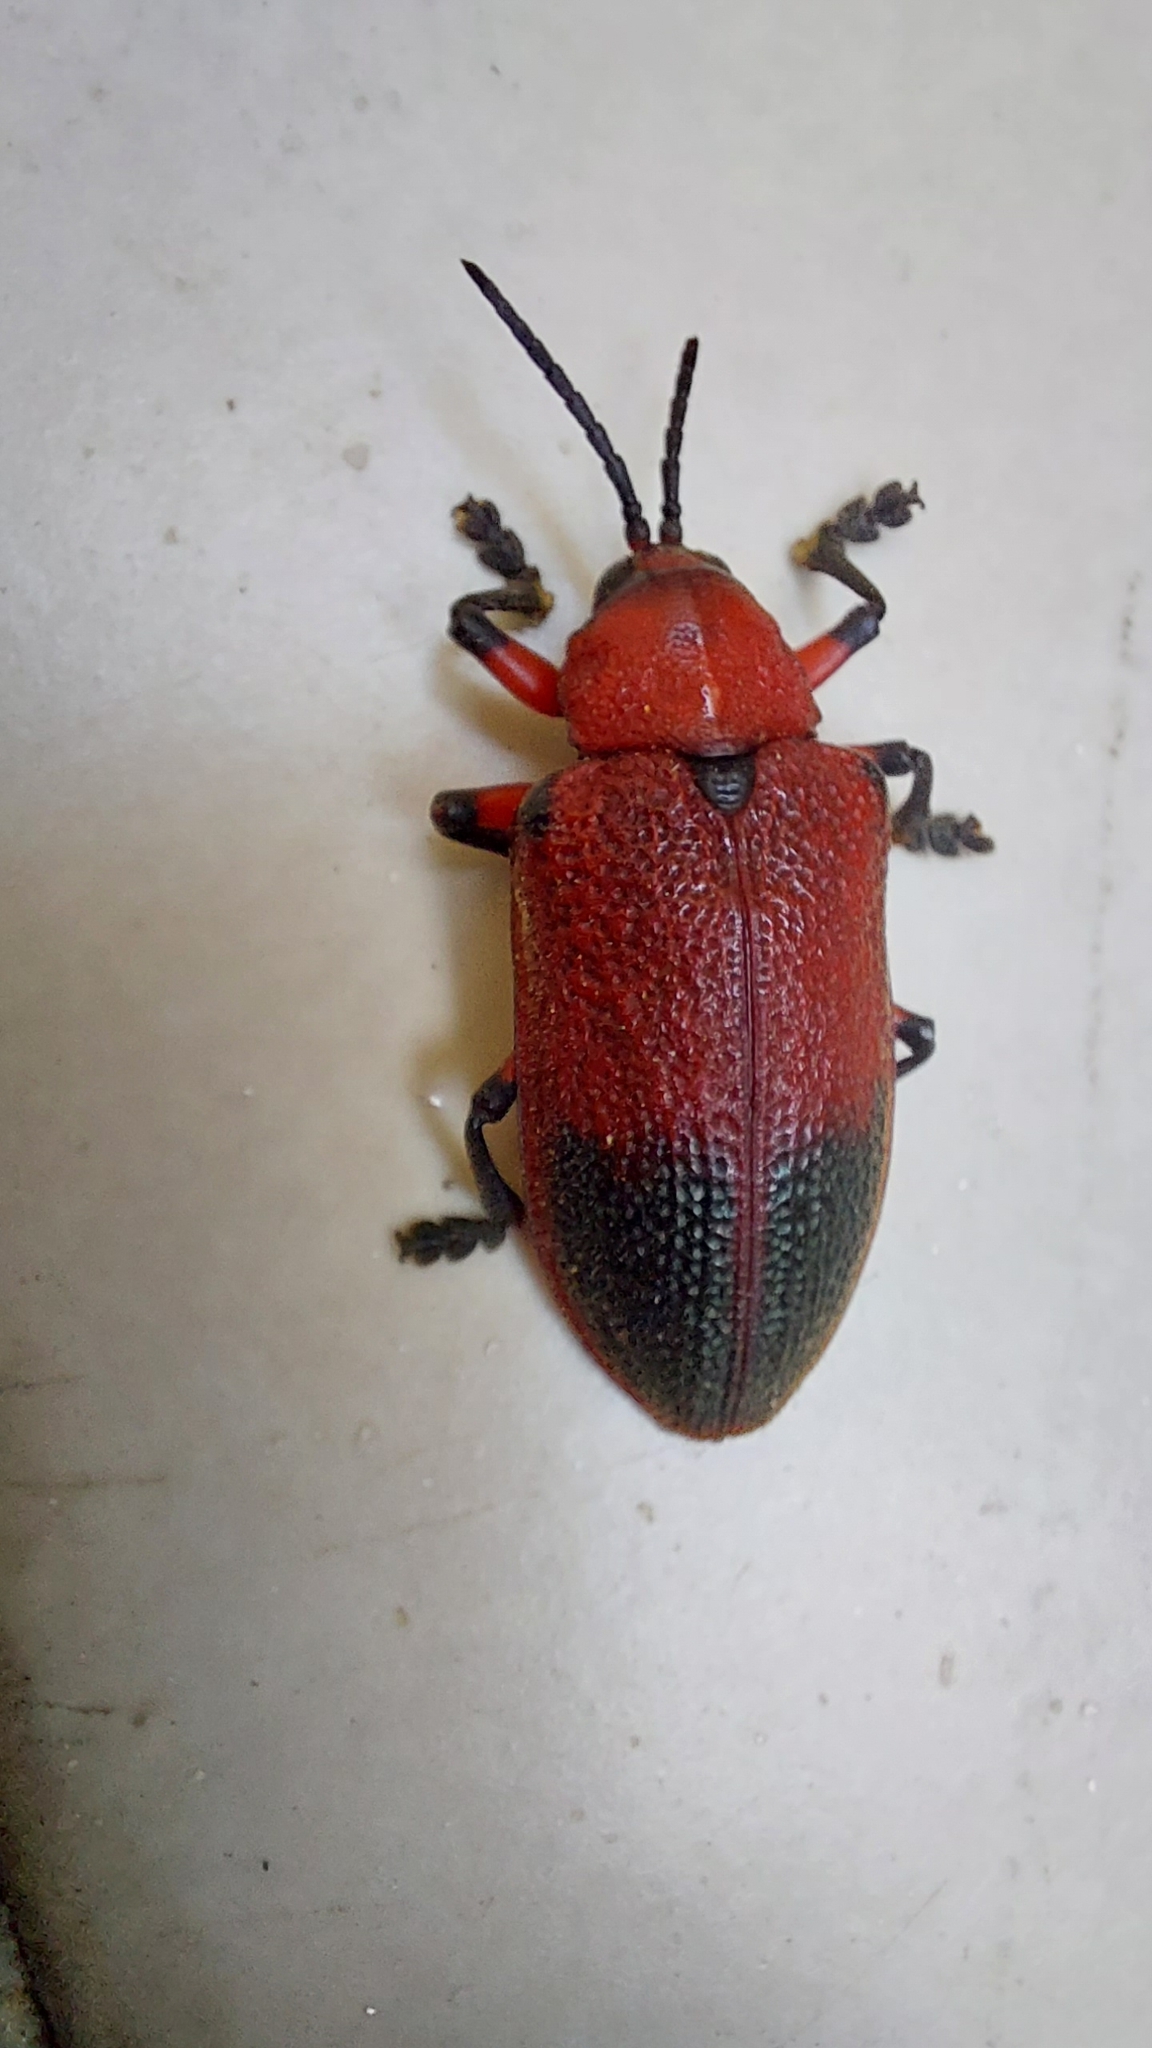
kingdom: Animalia
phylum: Arthropoda
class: Insecta
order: Coleoptera
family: Chrysomelidae
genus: Coraliomela
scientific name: Coraliomela aeneoplagiata
